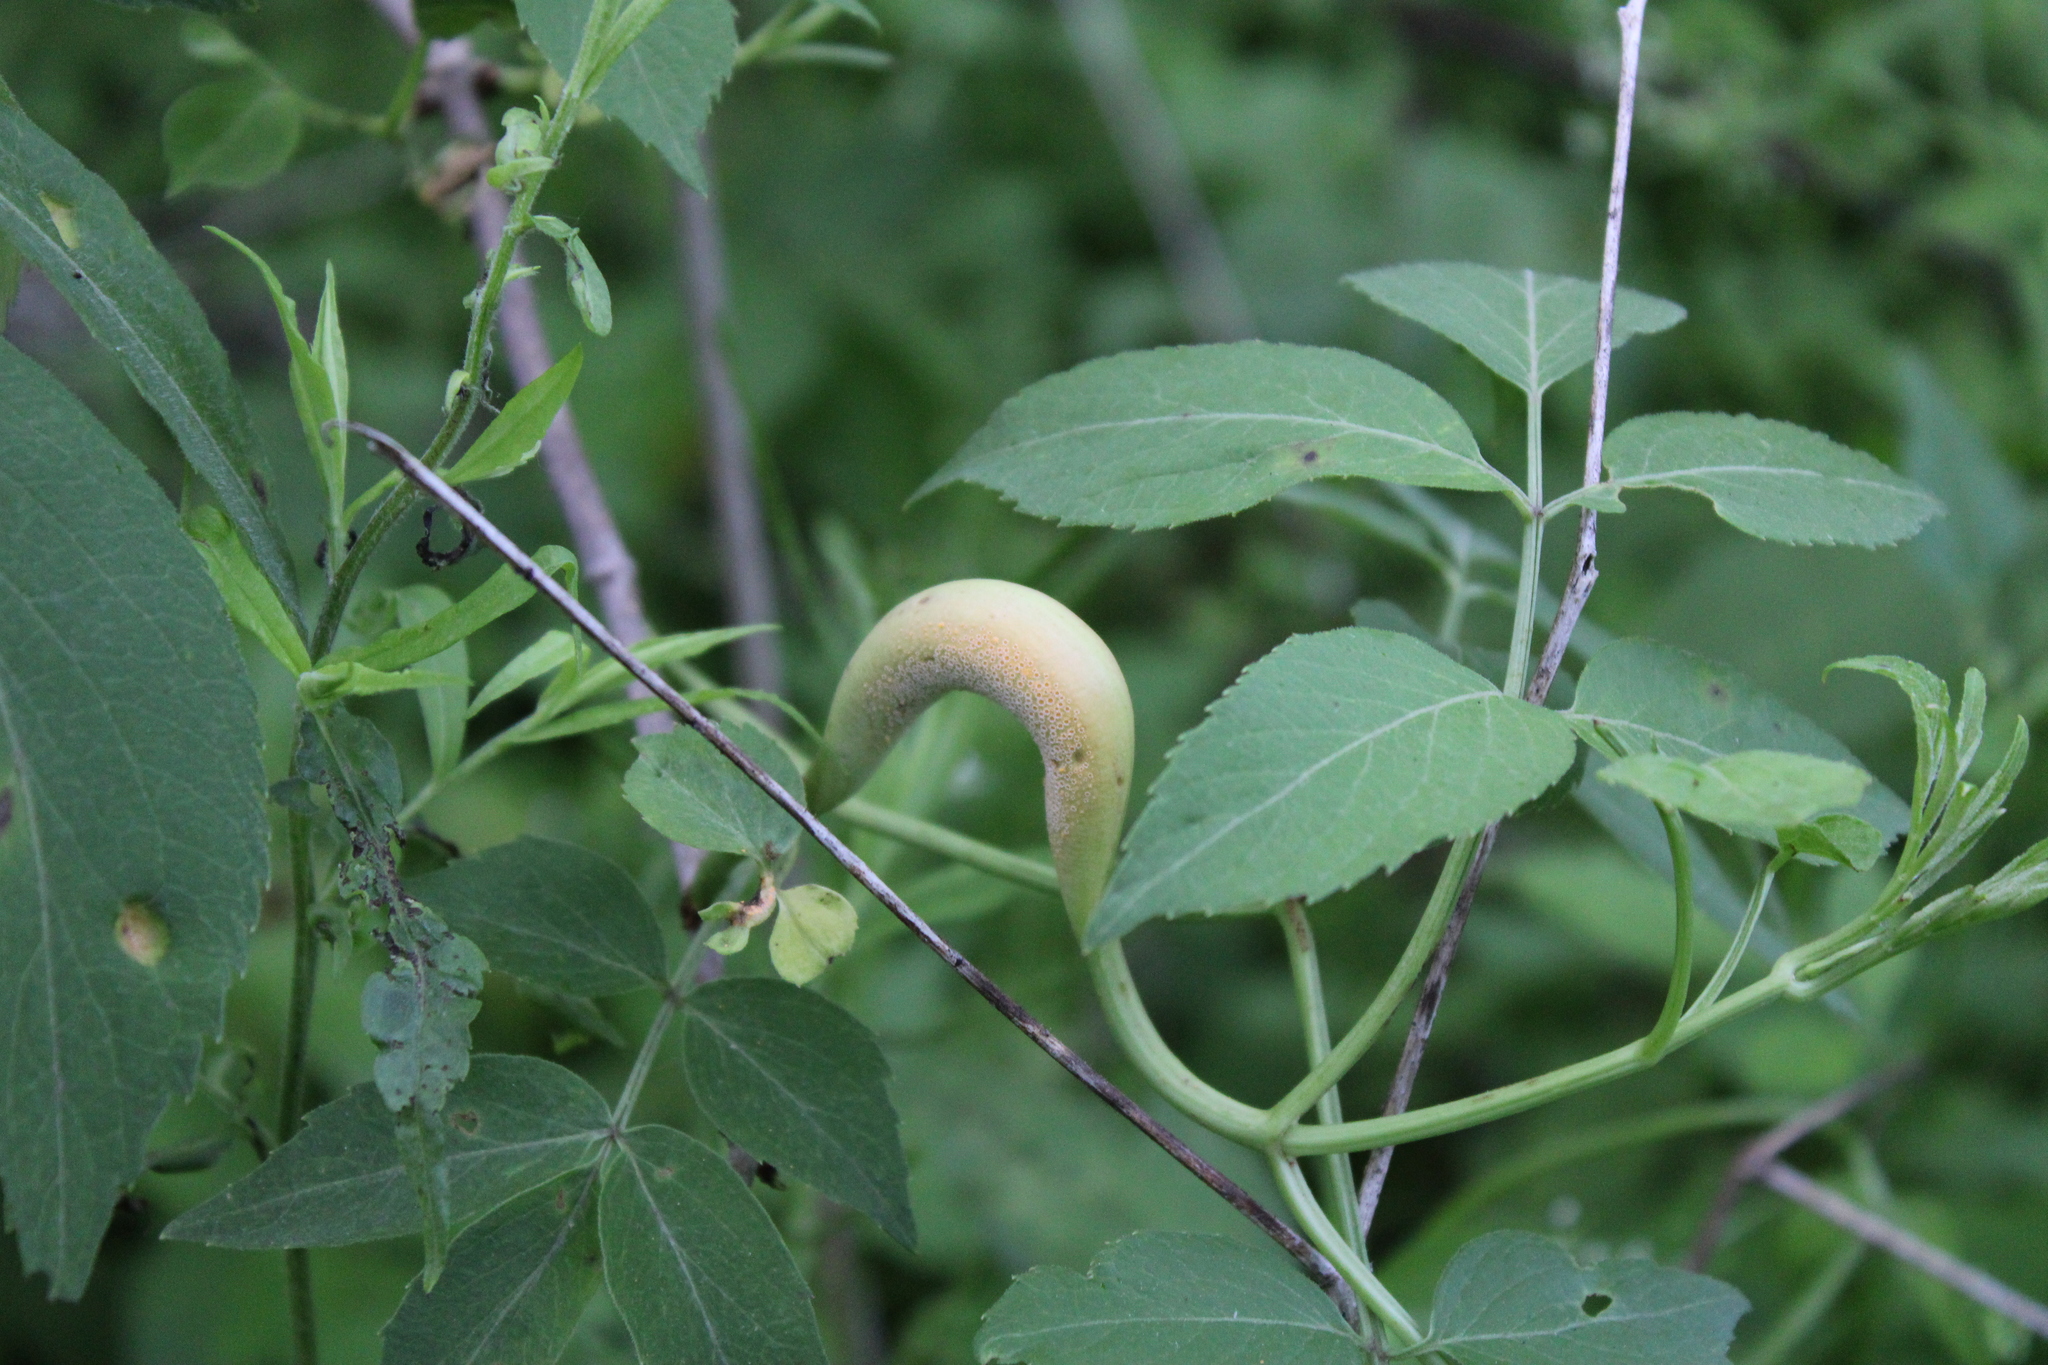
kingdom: Fungi
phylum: Basidiomycota
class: Pucciniomycetes
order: Pucciniales
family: Pucciniaceae
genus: Puccinia
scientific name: Puccinia
